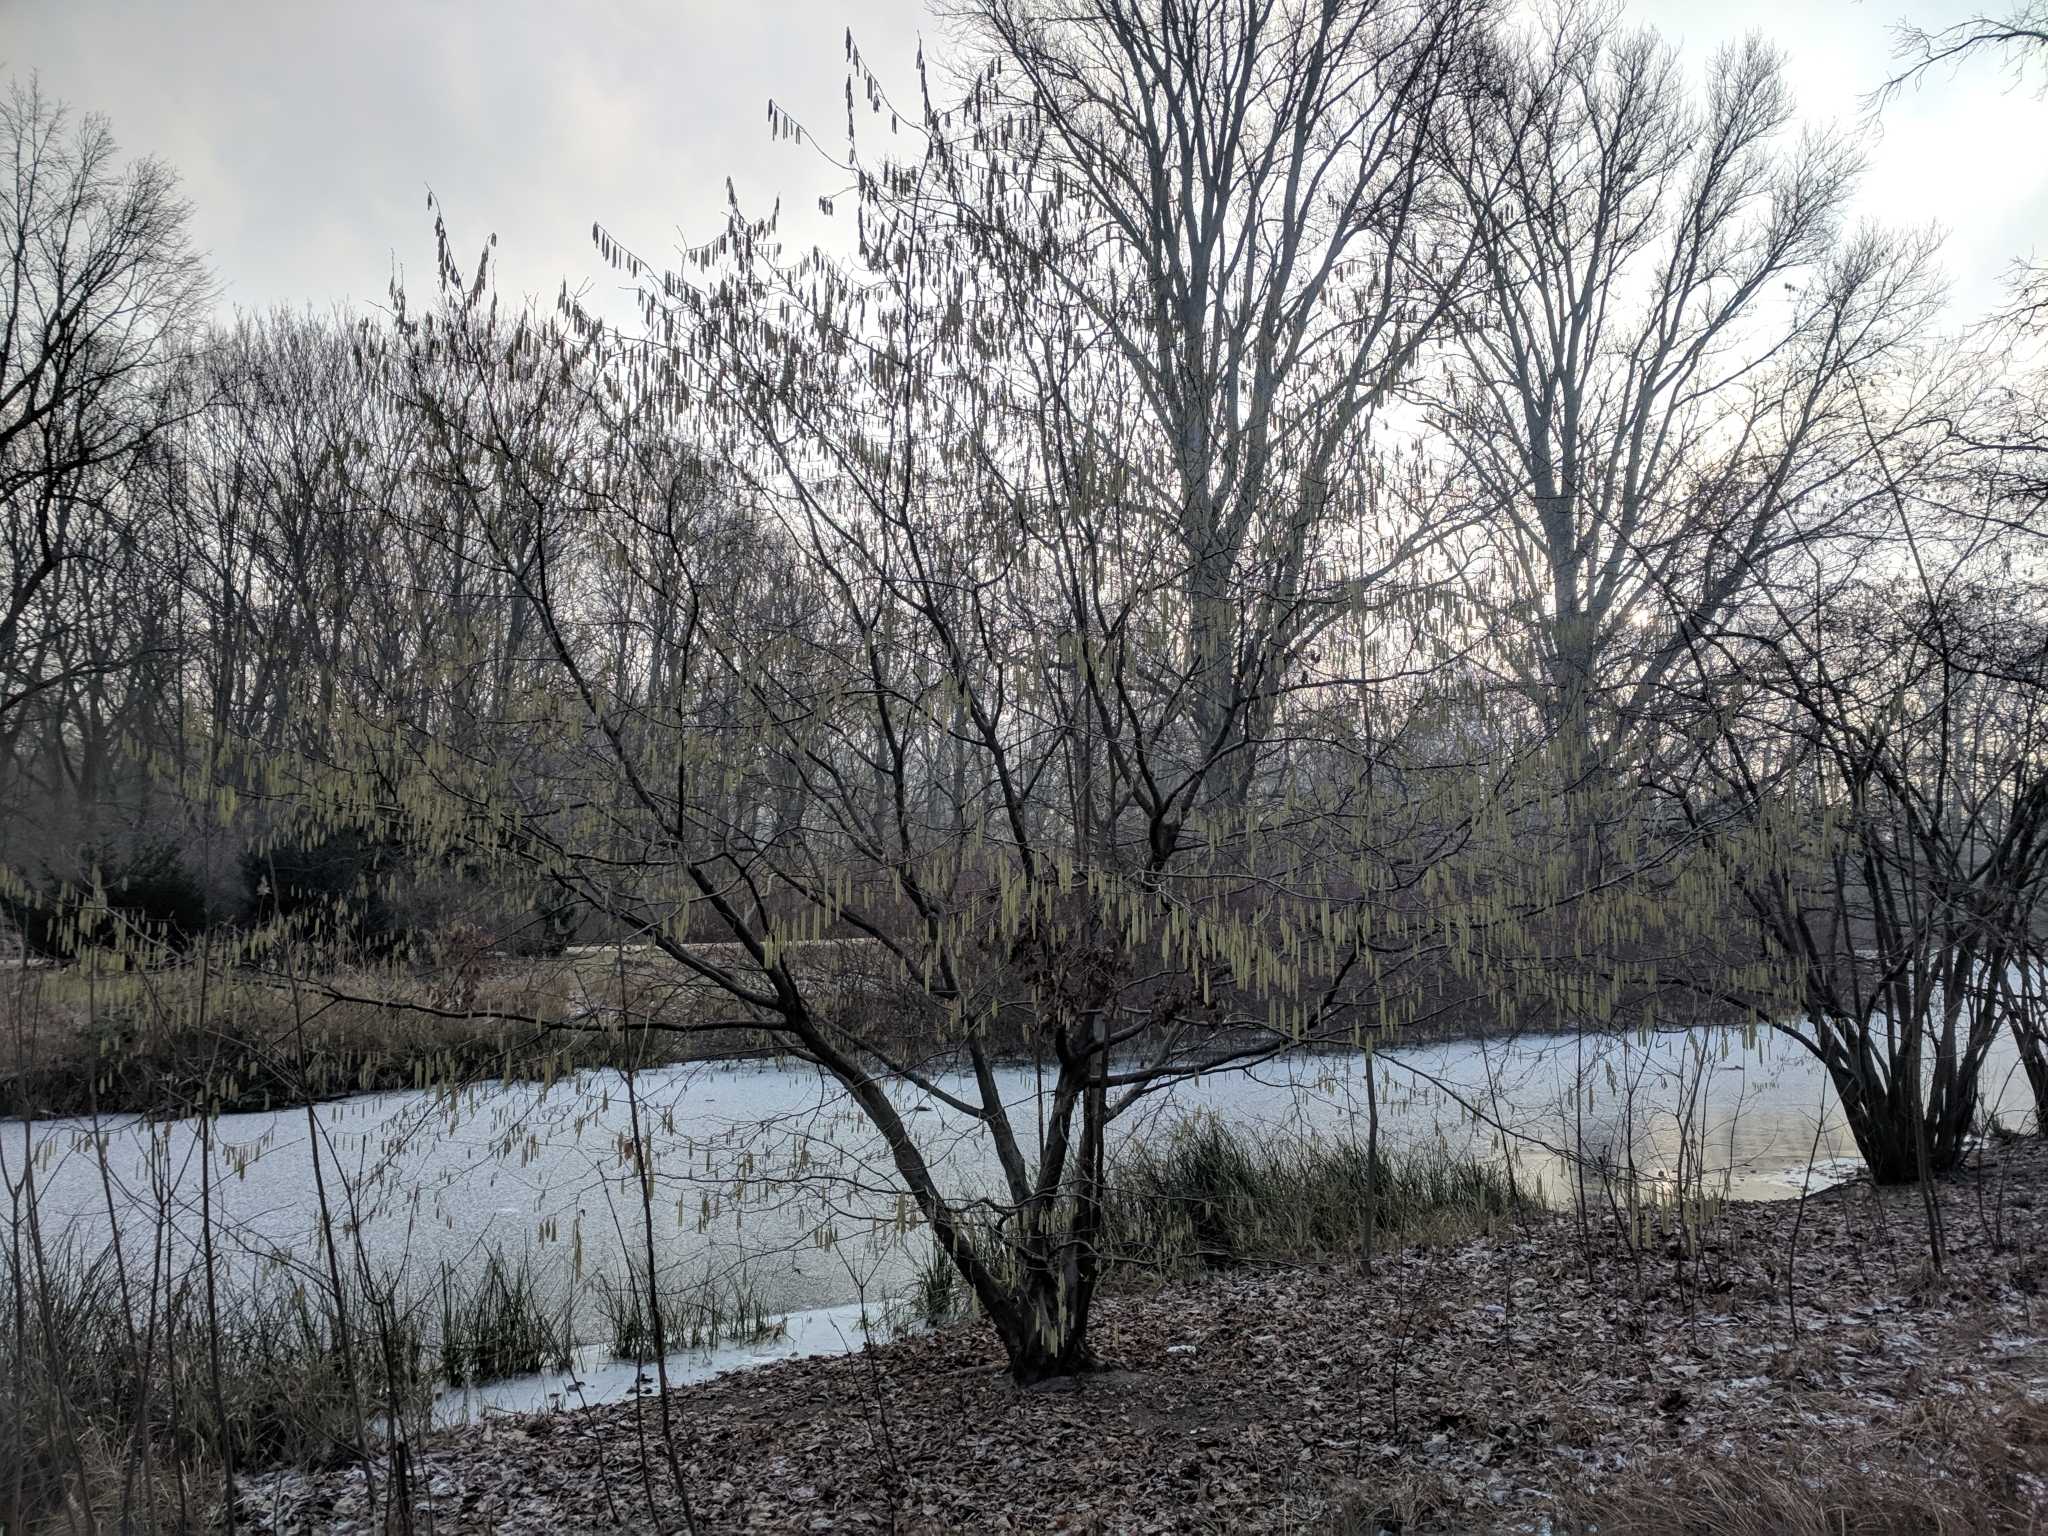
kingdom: Plantae
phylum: Tracheophyta
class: Magnoliopsida
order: Fagales
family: Betulaceae
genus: Corylus
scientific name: Corylus avellana
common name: European hazel
